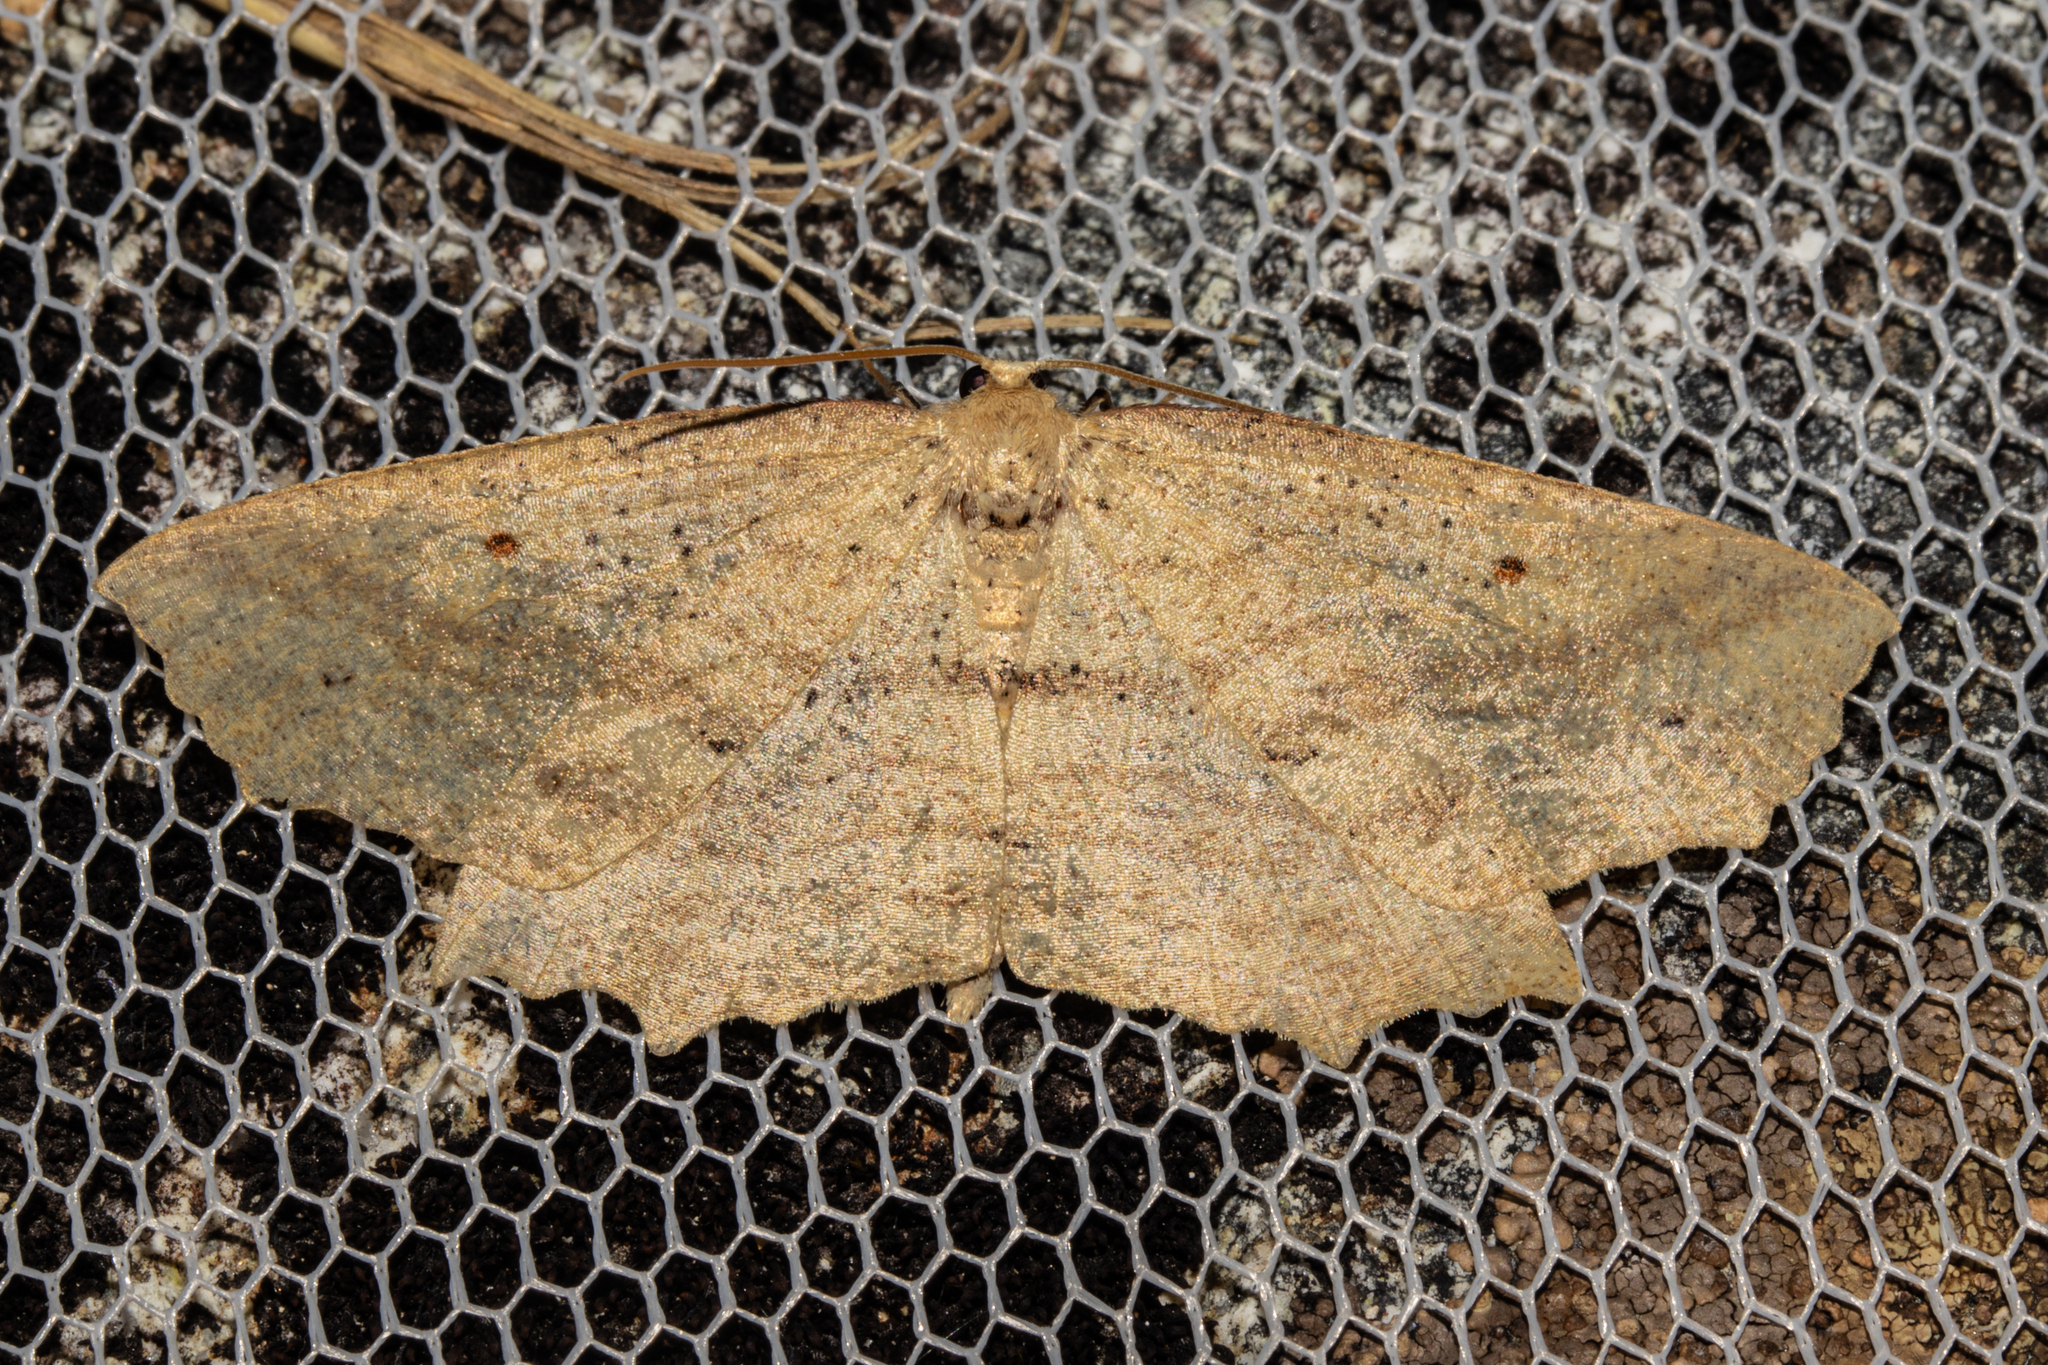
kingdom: Animalia
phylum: Arthropoda
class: Insecta
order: Lepidoptera
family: Geometridae
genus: Xyridacma
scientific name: Xyridacma veronicae
